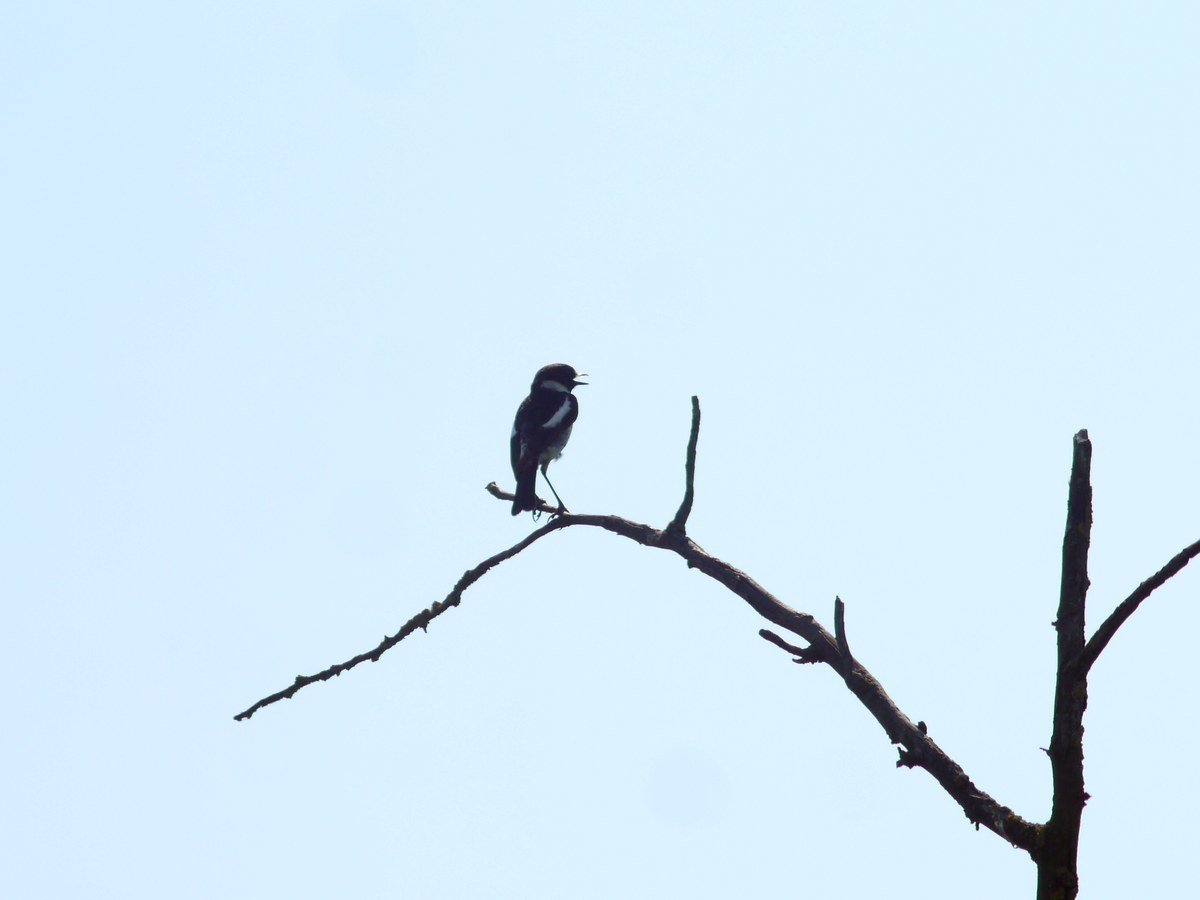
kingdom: Animalia
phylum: Chordata
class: Aves
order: Passeriformes
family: Muscicapidae
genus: Saxicola
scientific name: Saxicola rubicola
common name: European stonechat
